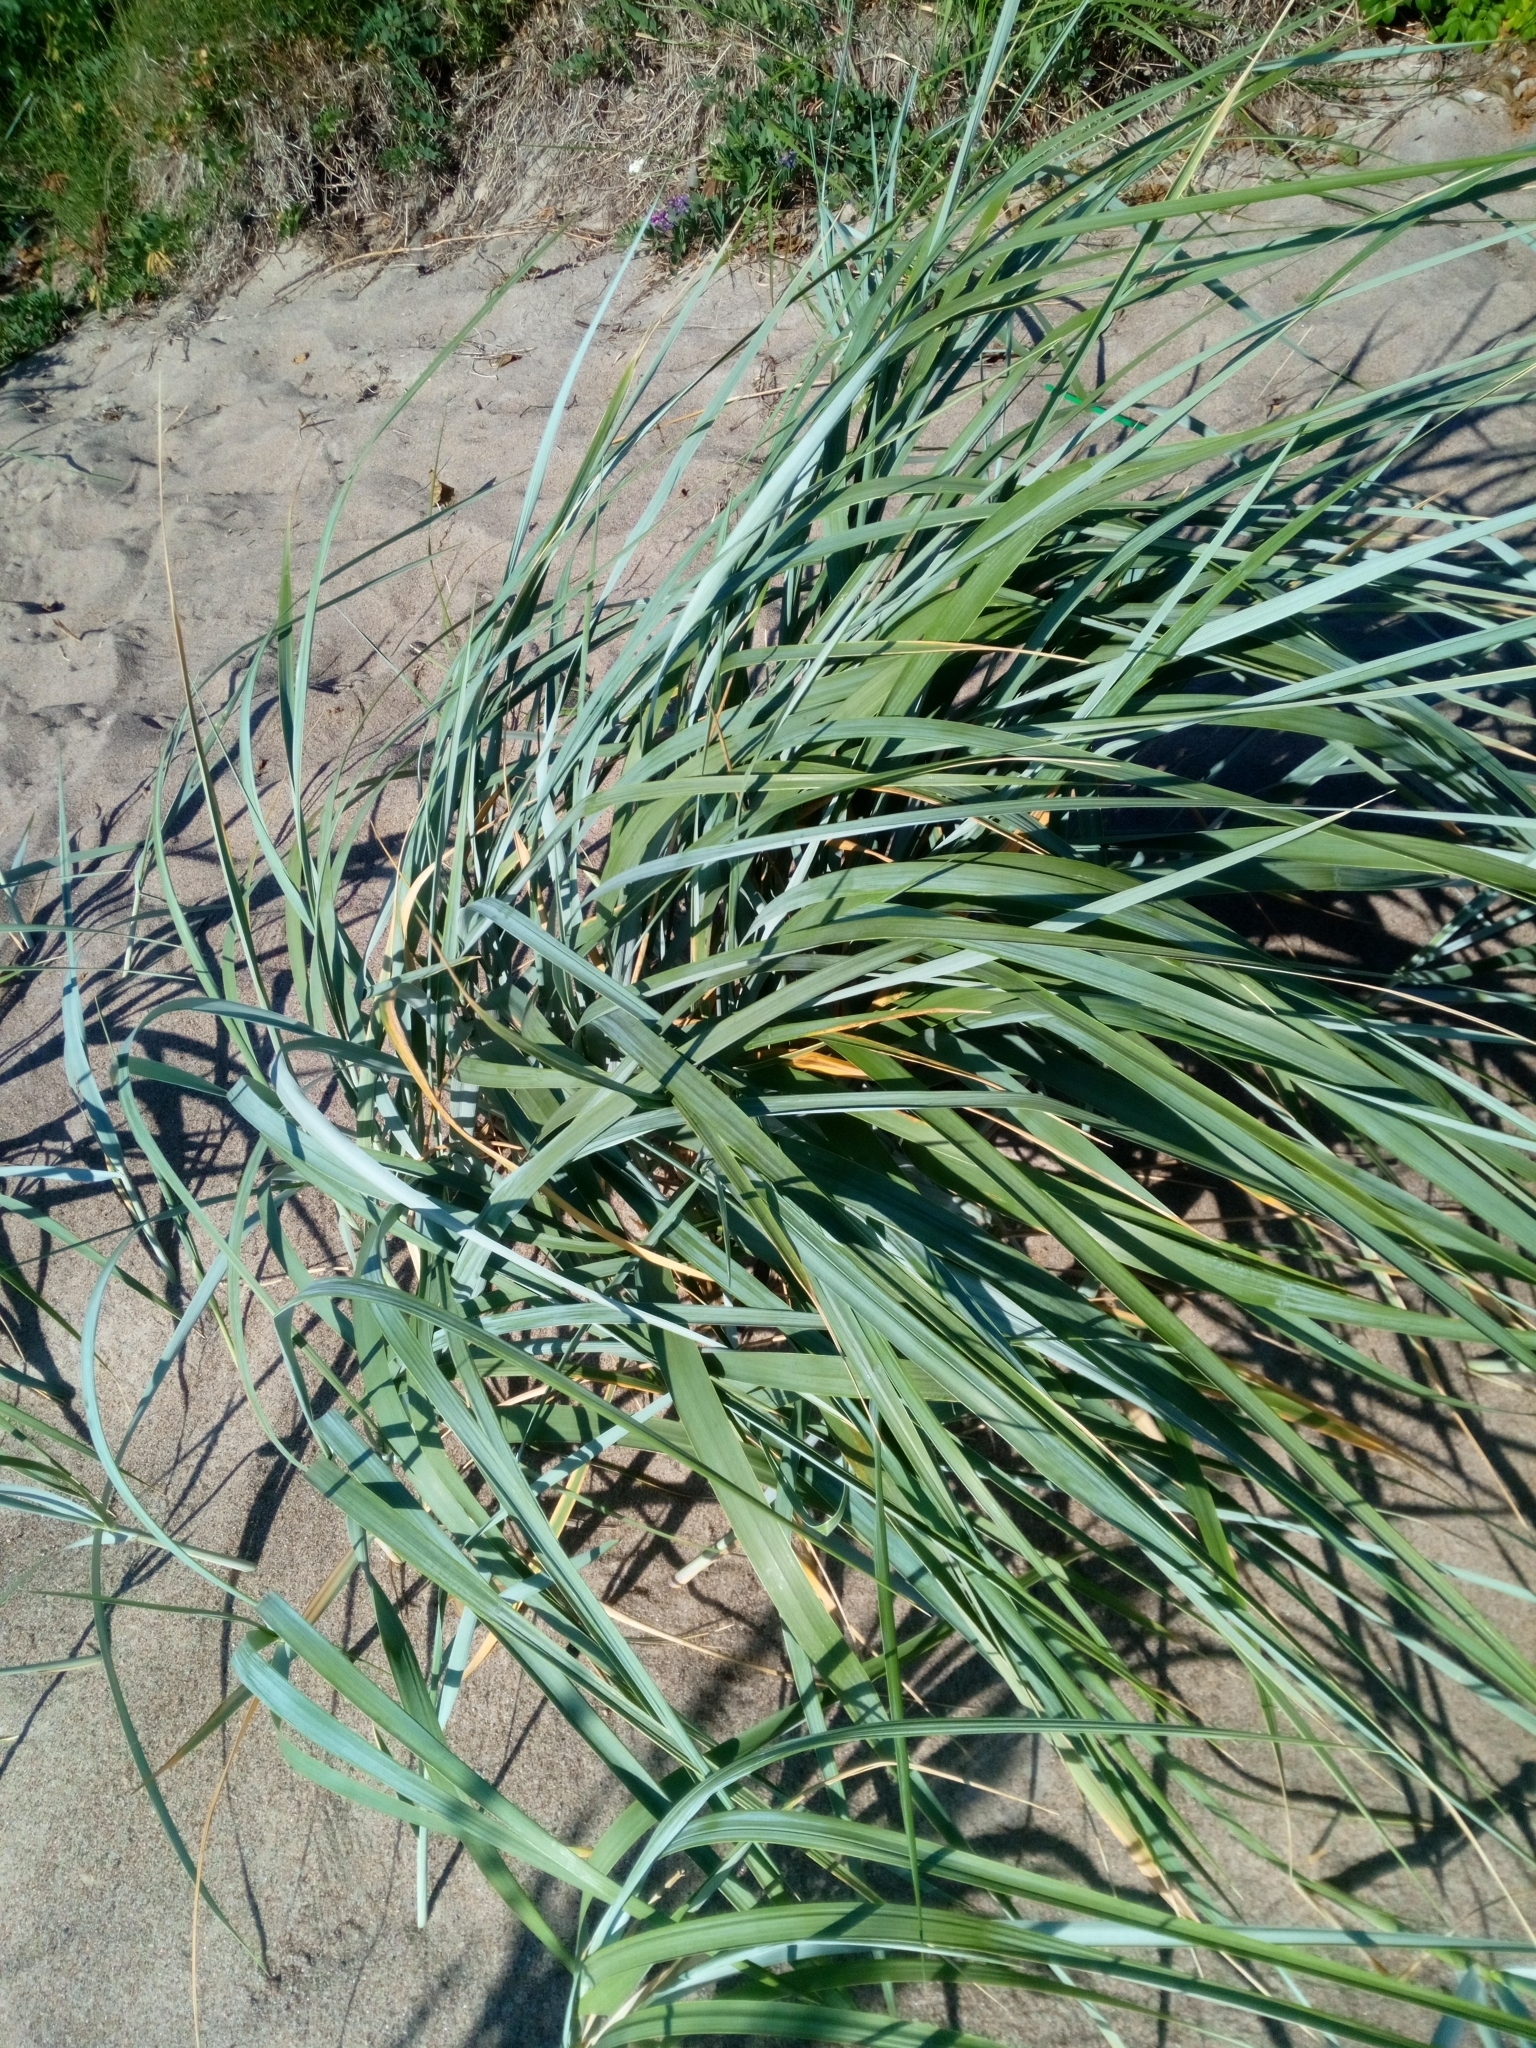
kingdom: Plantae
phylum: Tracheophyta
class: Liliopsida
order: Poales
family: Poaceae
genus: Leymus
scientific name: Leymus arenarius
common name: Lyme-grass
